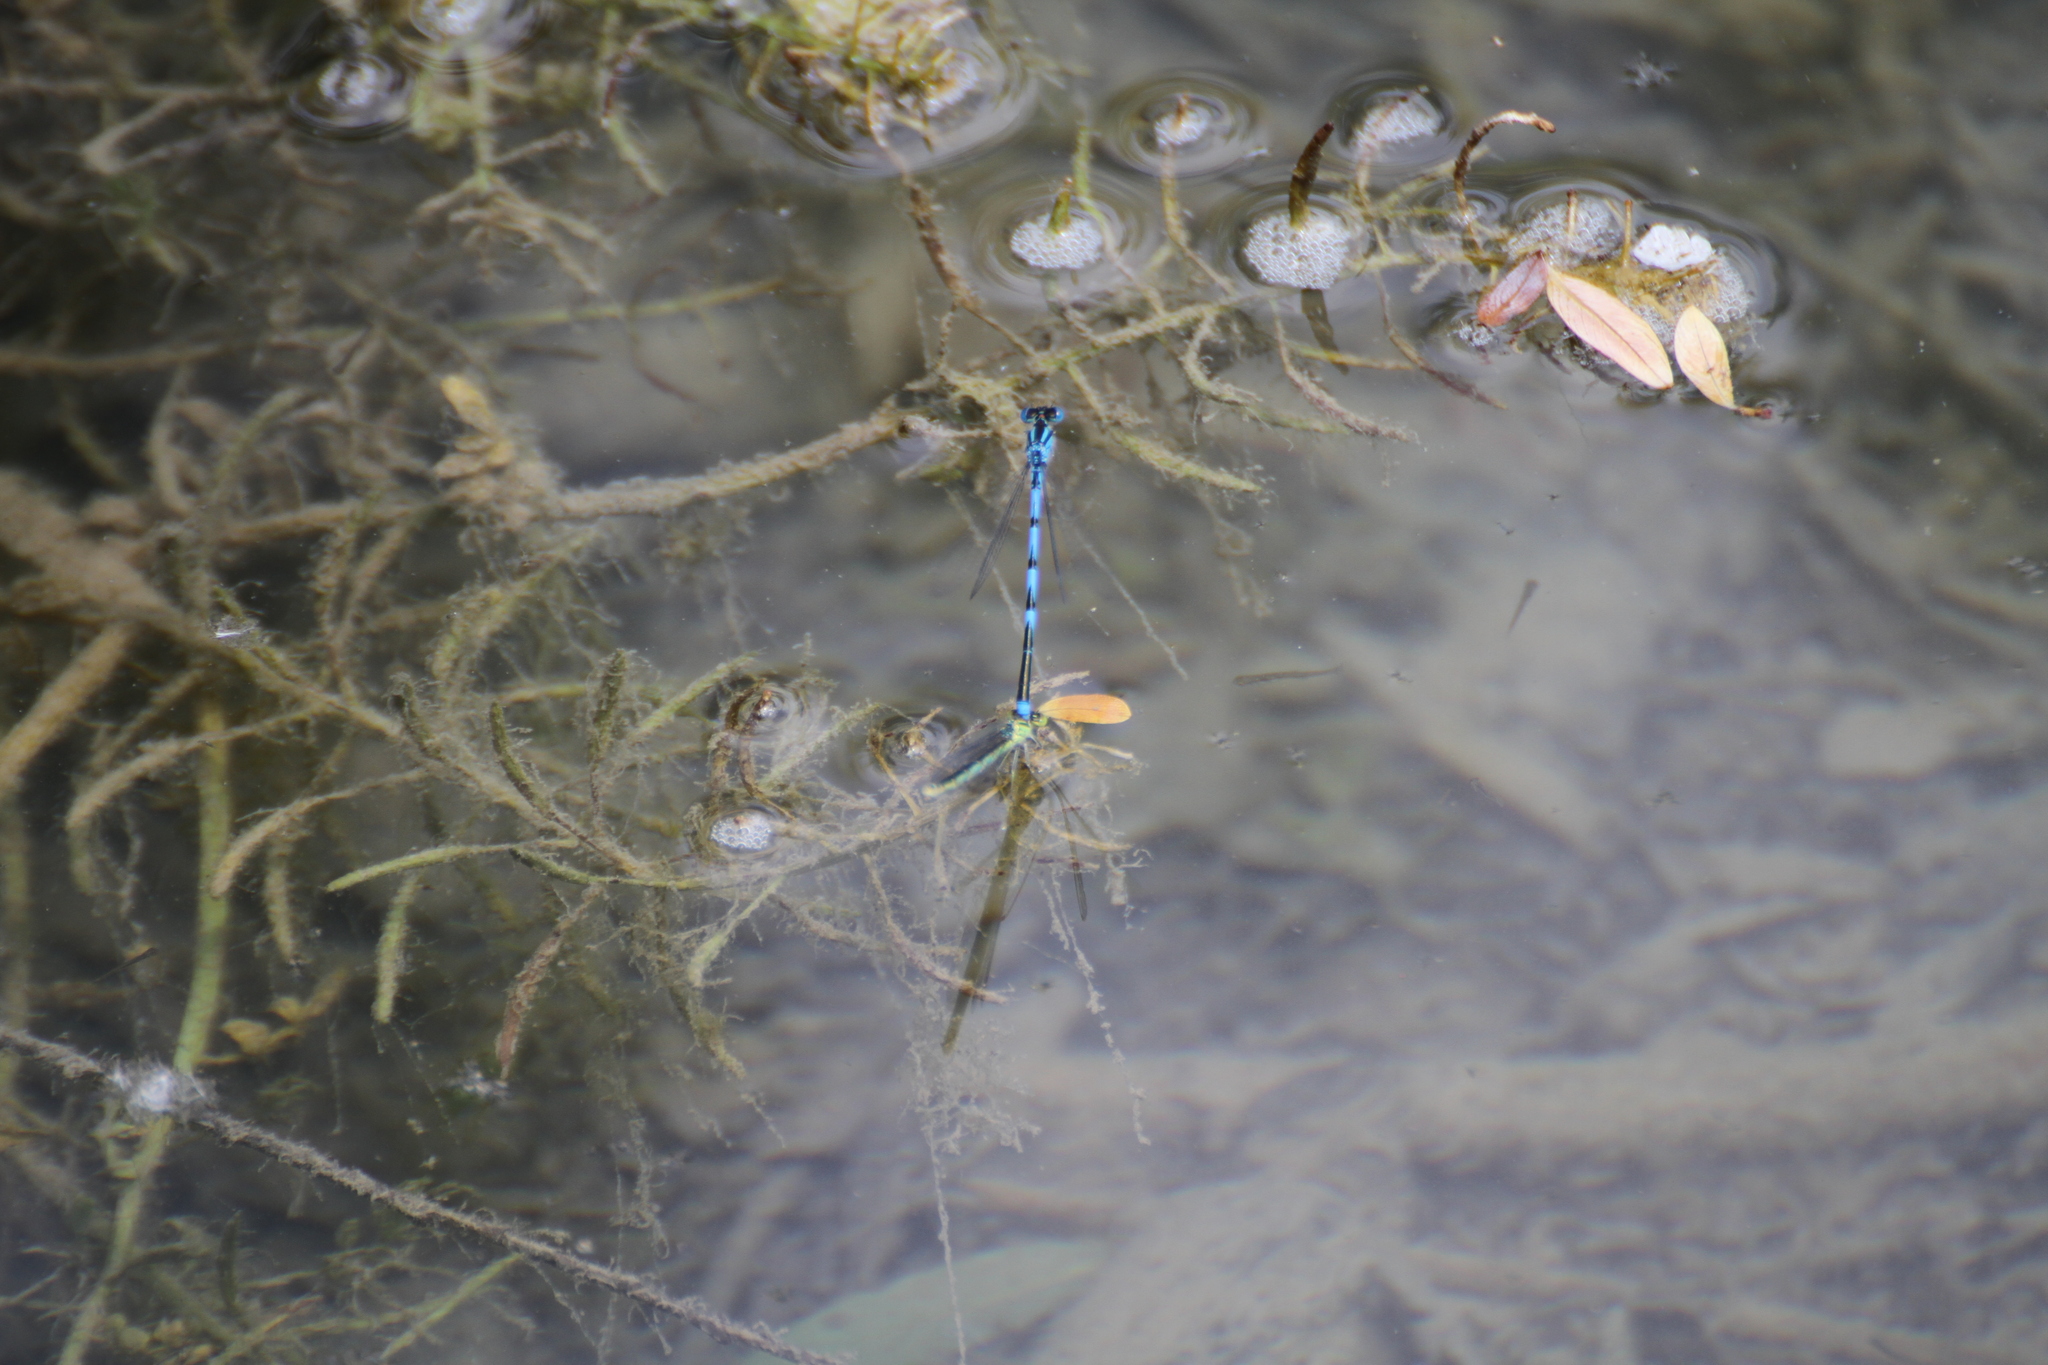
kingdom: Animalia
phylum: Arthropoda
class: Insecta
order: Odonata
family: Coenagrionidae
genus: Erythromma
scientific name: Erythromma lindenii
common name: Blue-eye
